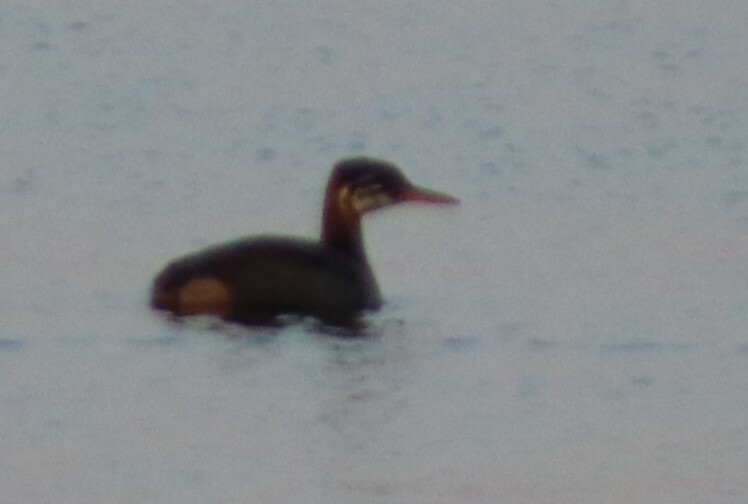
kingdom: Animalia
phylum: Chordata
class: Aves
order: Podicipediformes
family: Podicipedidae
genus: Podiceps
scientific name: Podiceps grisegena
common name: Red-necked grebe
